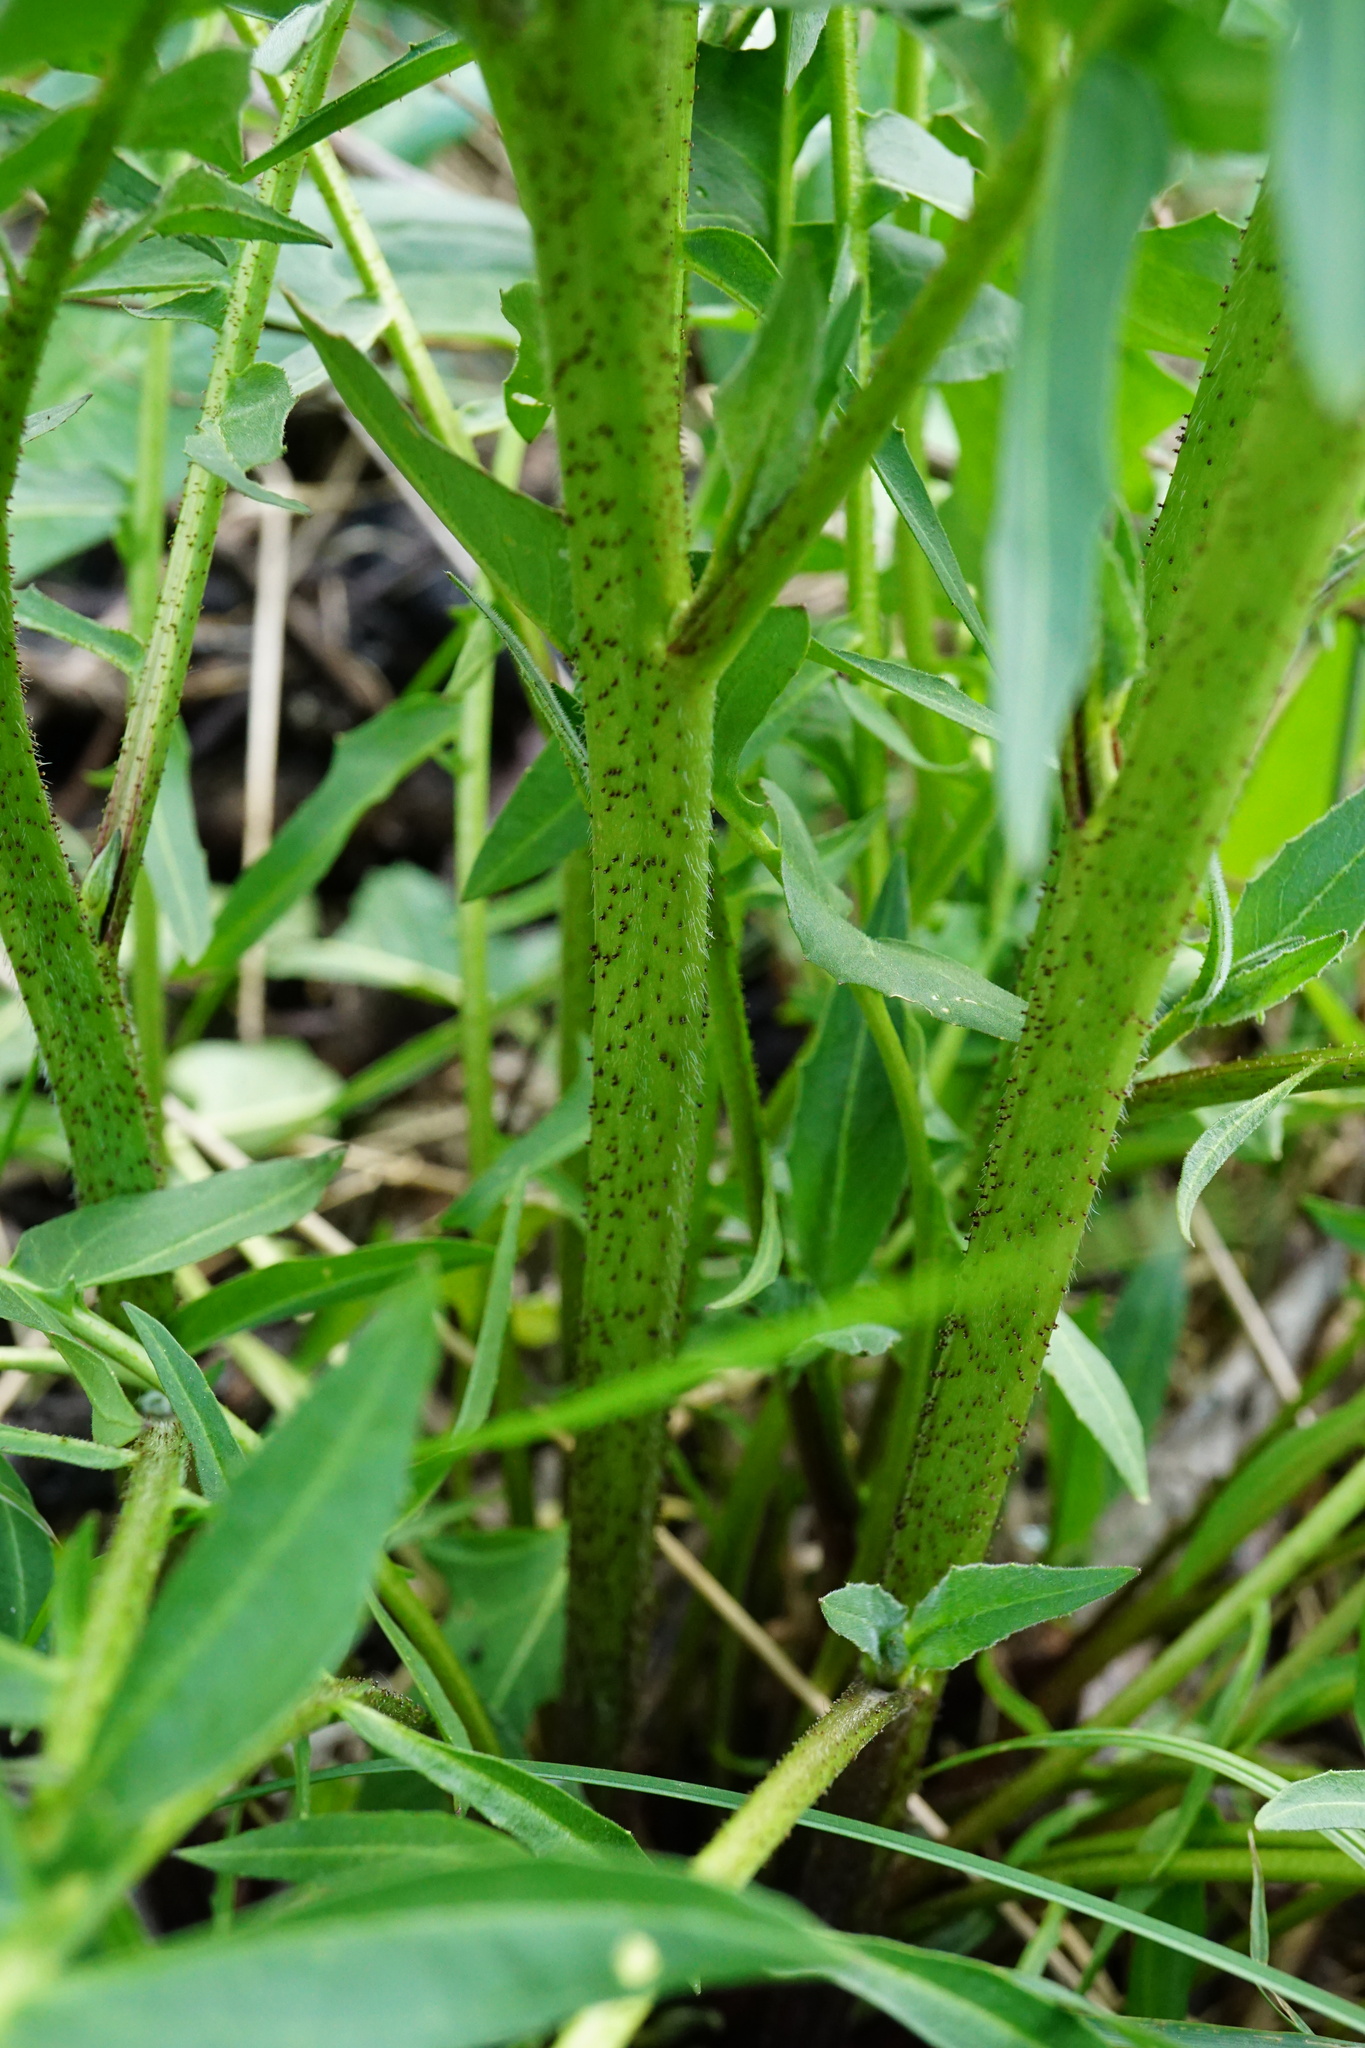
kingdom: Plantae
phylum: Tracheophyta
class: Magnoliopsida
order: Brassicales
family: Brassicaceae
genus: Bunias
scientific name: Bunias orientalis
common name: Warty-cabbage
